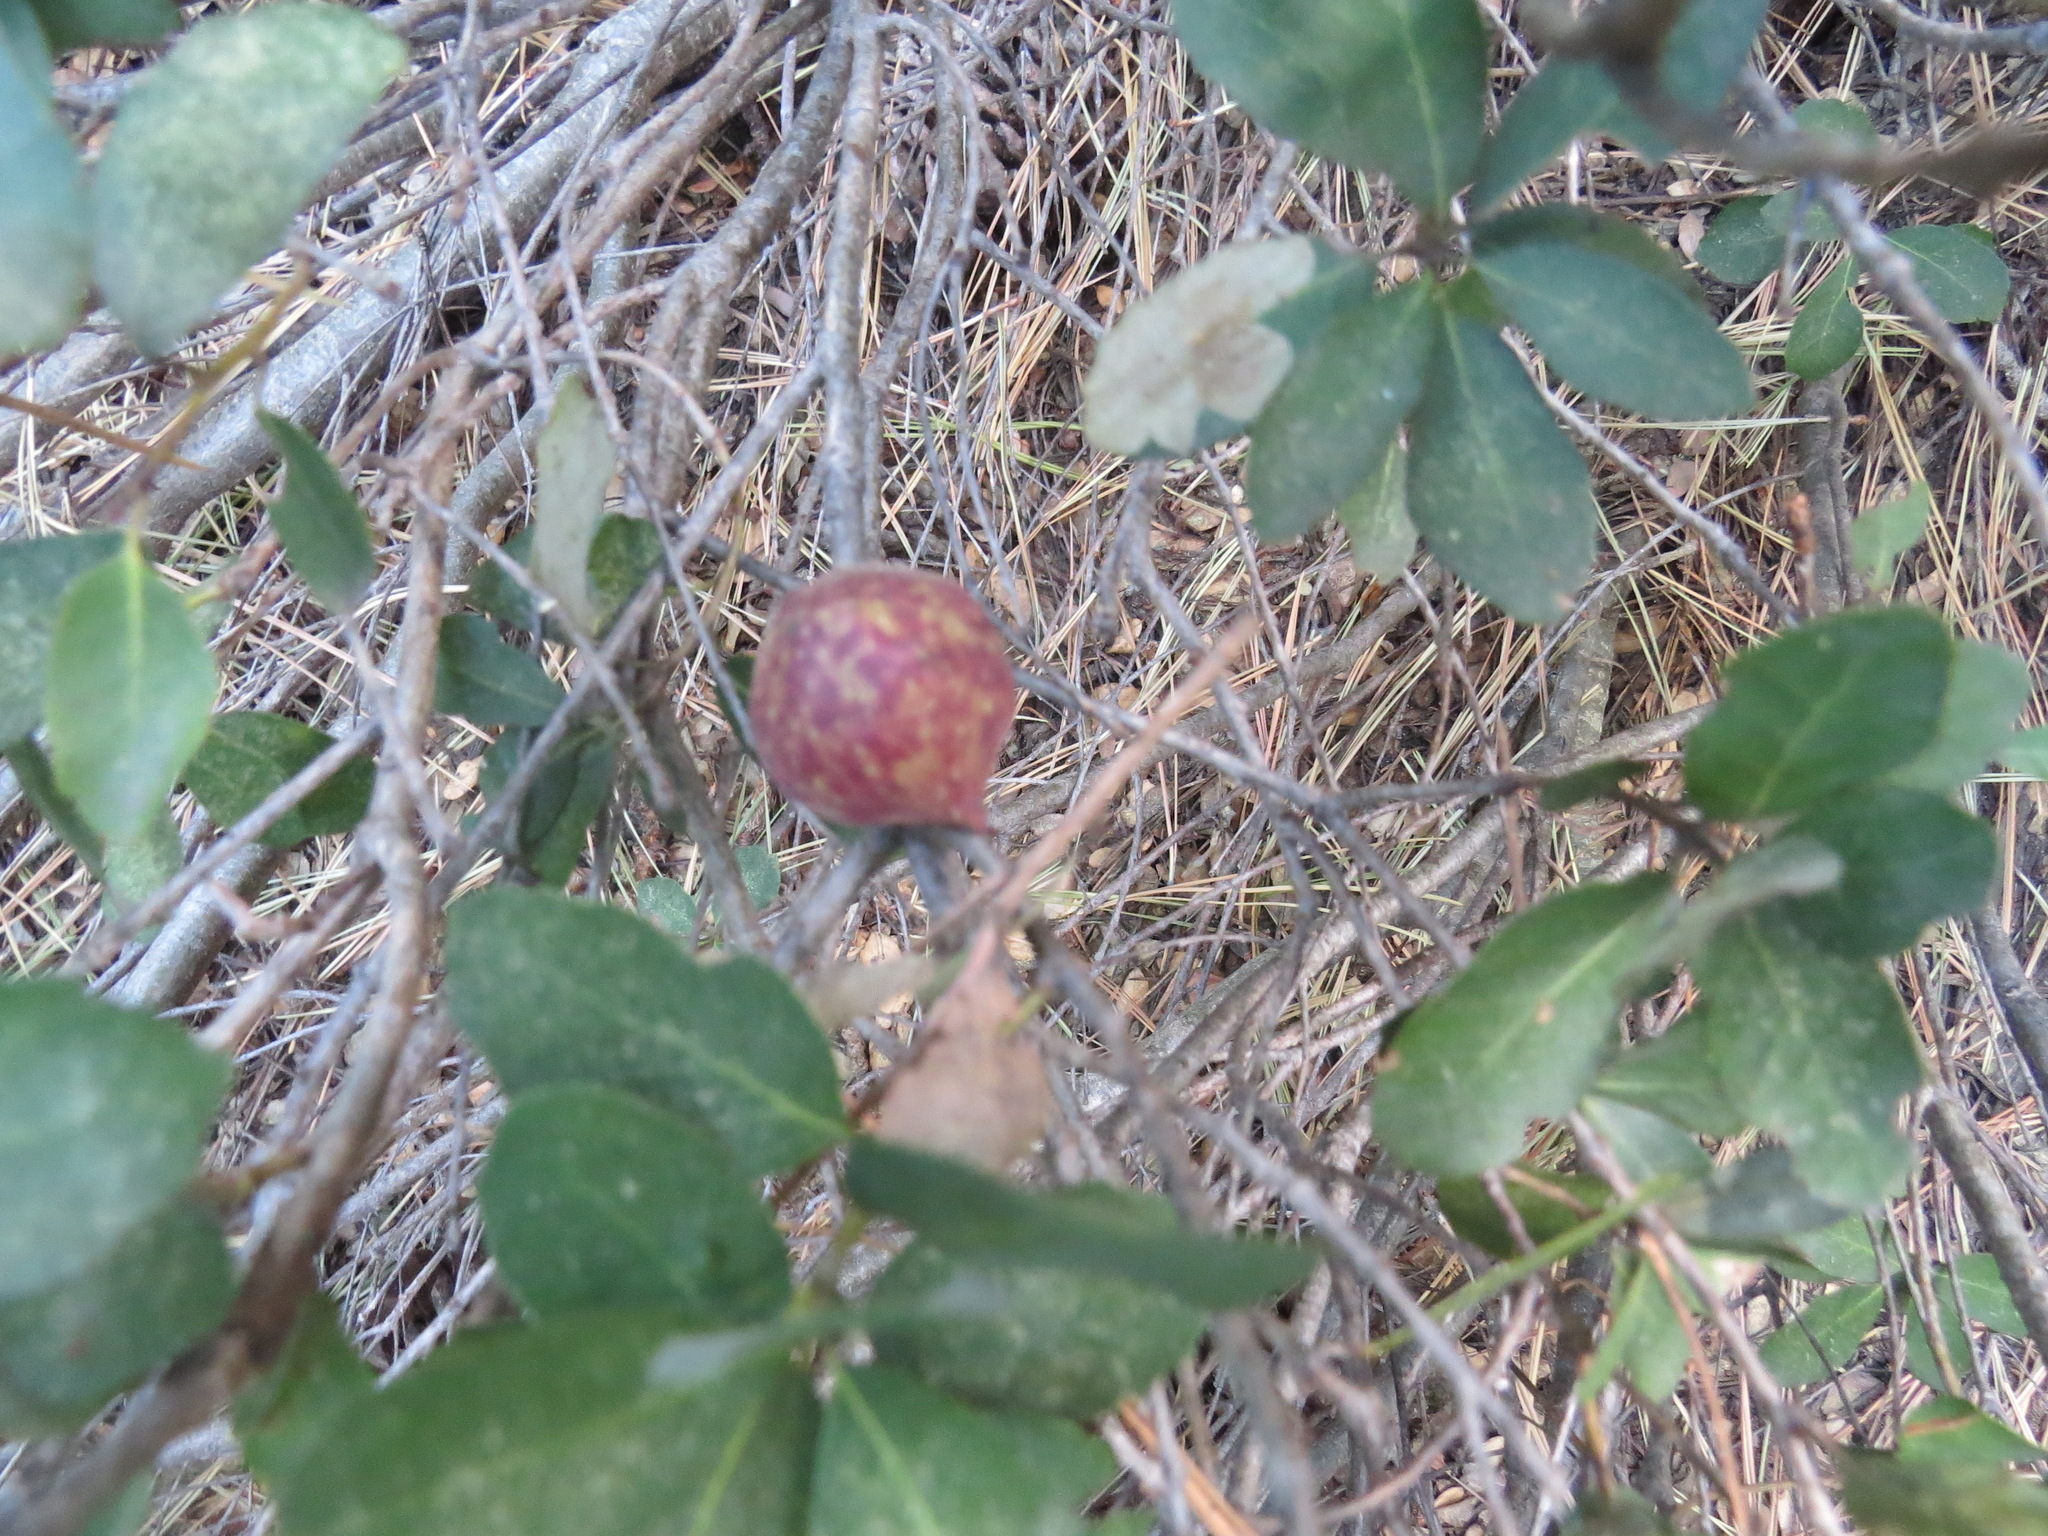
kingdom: Animalia
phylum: Arthropoda
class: Insecta
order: Hymenoptera
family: Cynipidae
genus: Andricus
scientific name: Andricus
